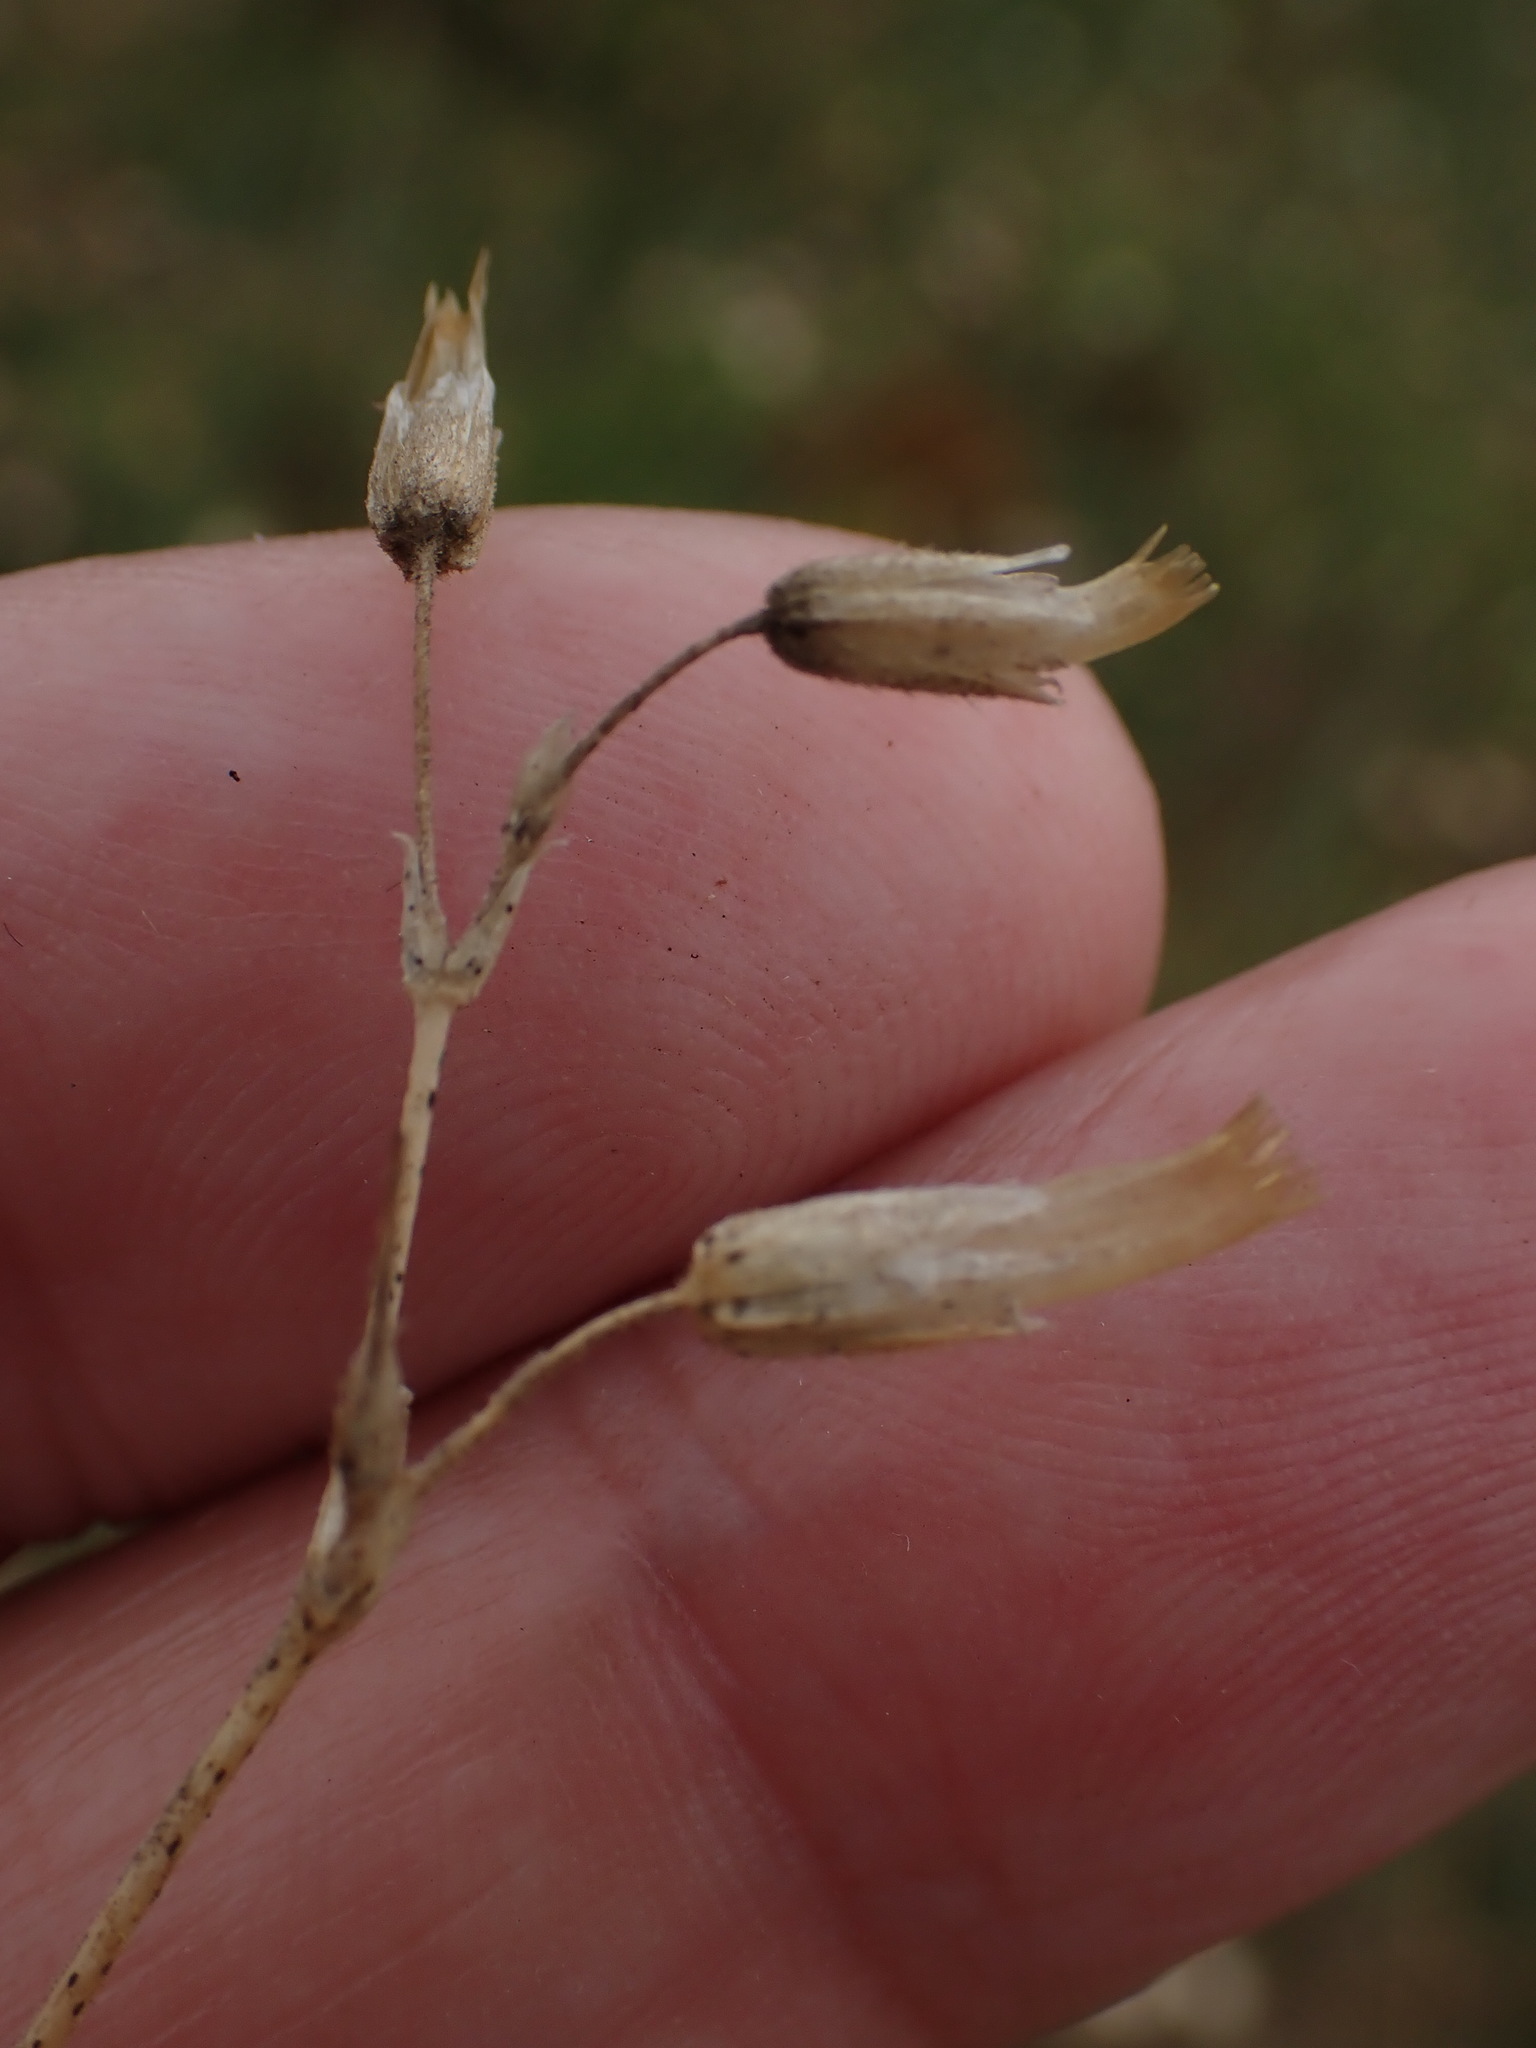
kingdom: Plantae
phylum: Tracheophyta
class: Magnoliopsida
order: Caryophyllales
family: Caryophyllaceae
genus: Cerastium
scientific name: Cerastium fontanum
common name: Common mouse-ear
